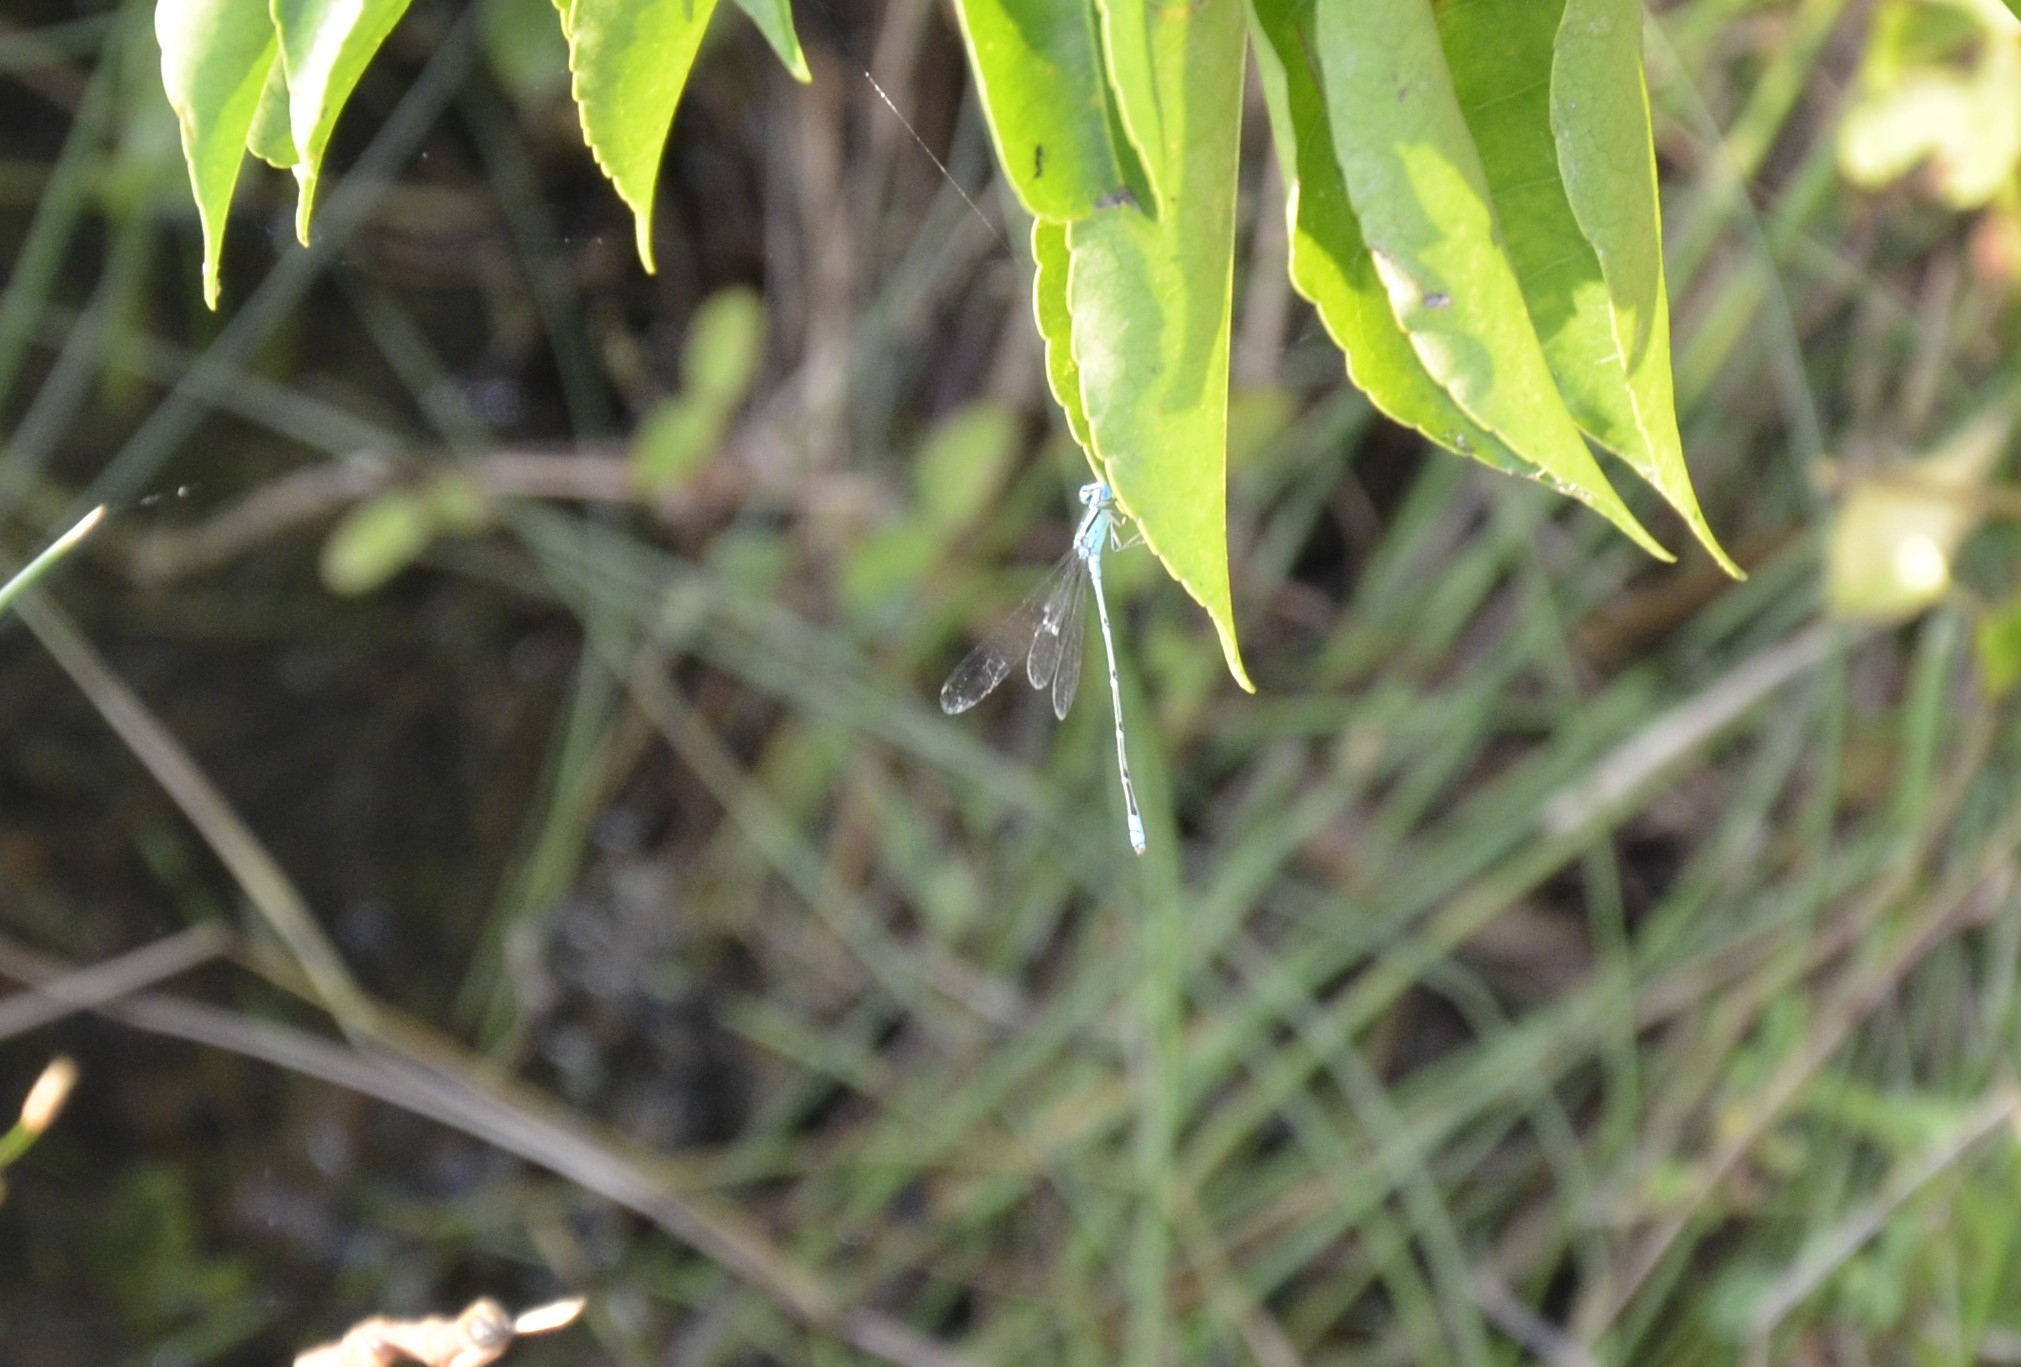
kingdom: Animalia
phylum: Arthropoda
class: Insecta
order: Odonata
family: Coenagrionidae
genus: Pseudagrion
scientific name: Pseudagrion microcephalum
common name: Blue riverdamsel
